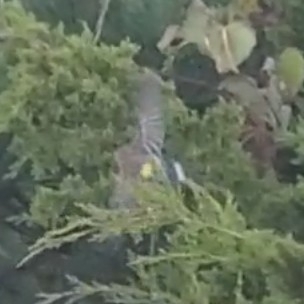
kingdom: Animalia
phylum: Chordata
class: Aves
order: Passeriformes
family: Parulidae
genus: Setophaga
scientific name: Setophaga coronata
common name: Myrtle warbler
